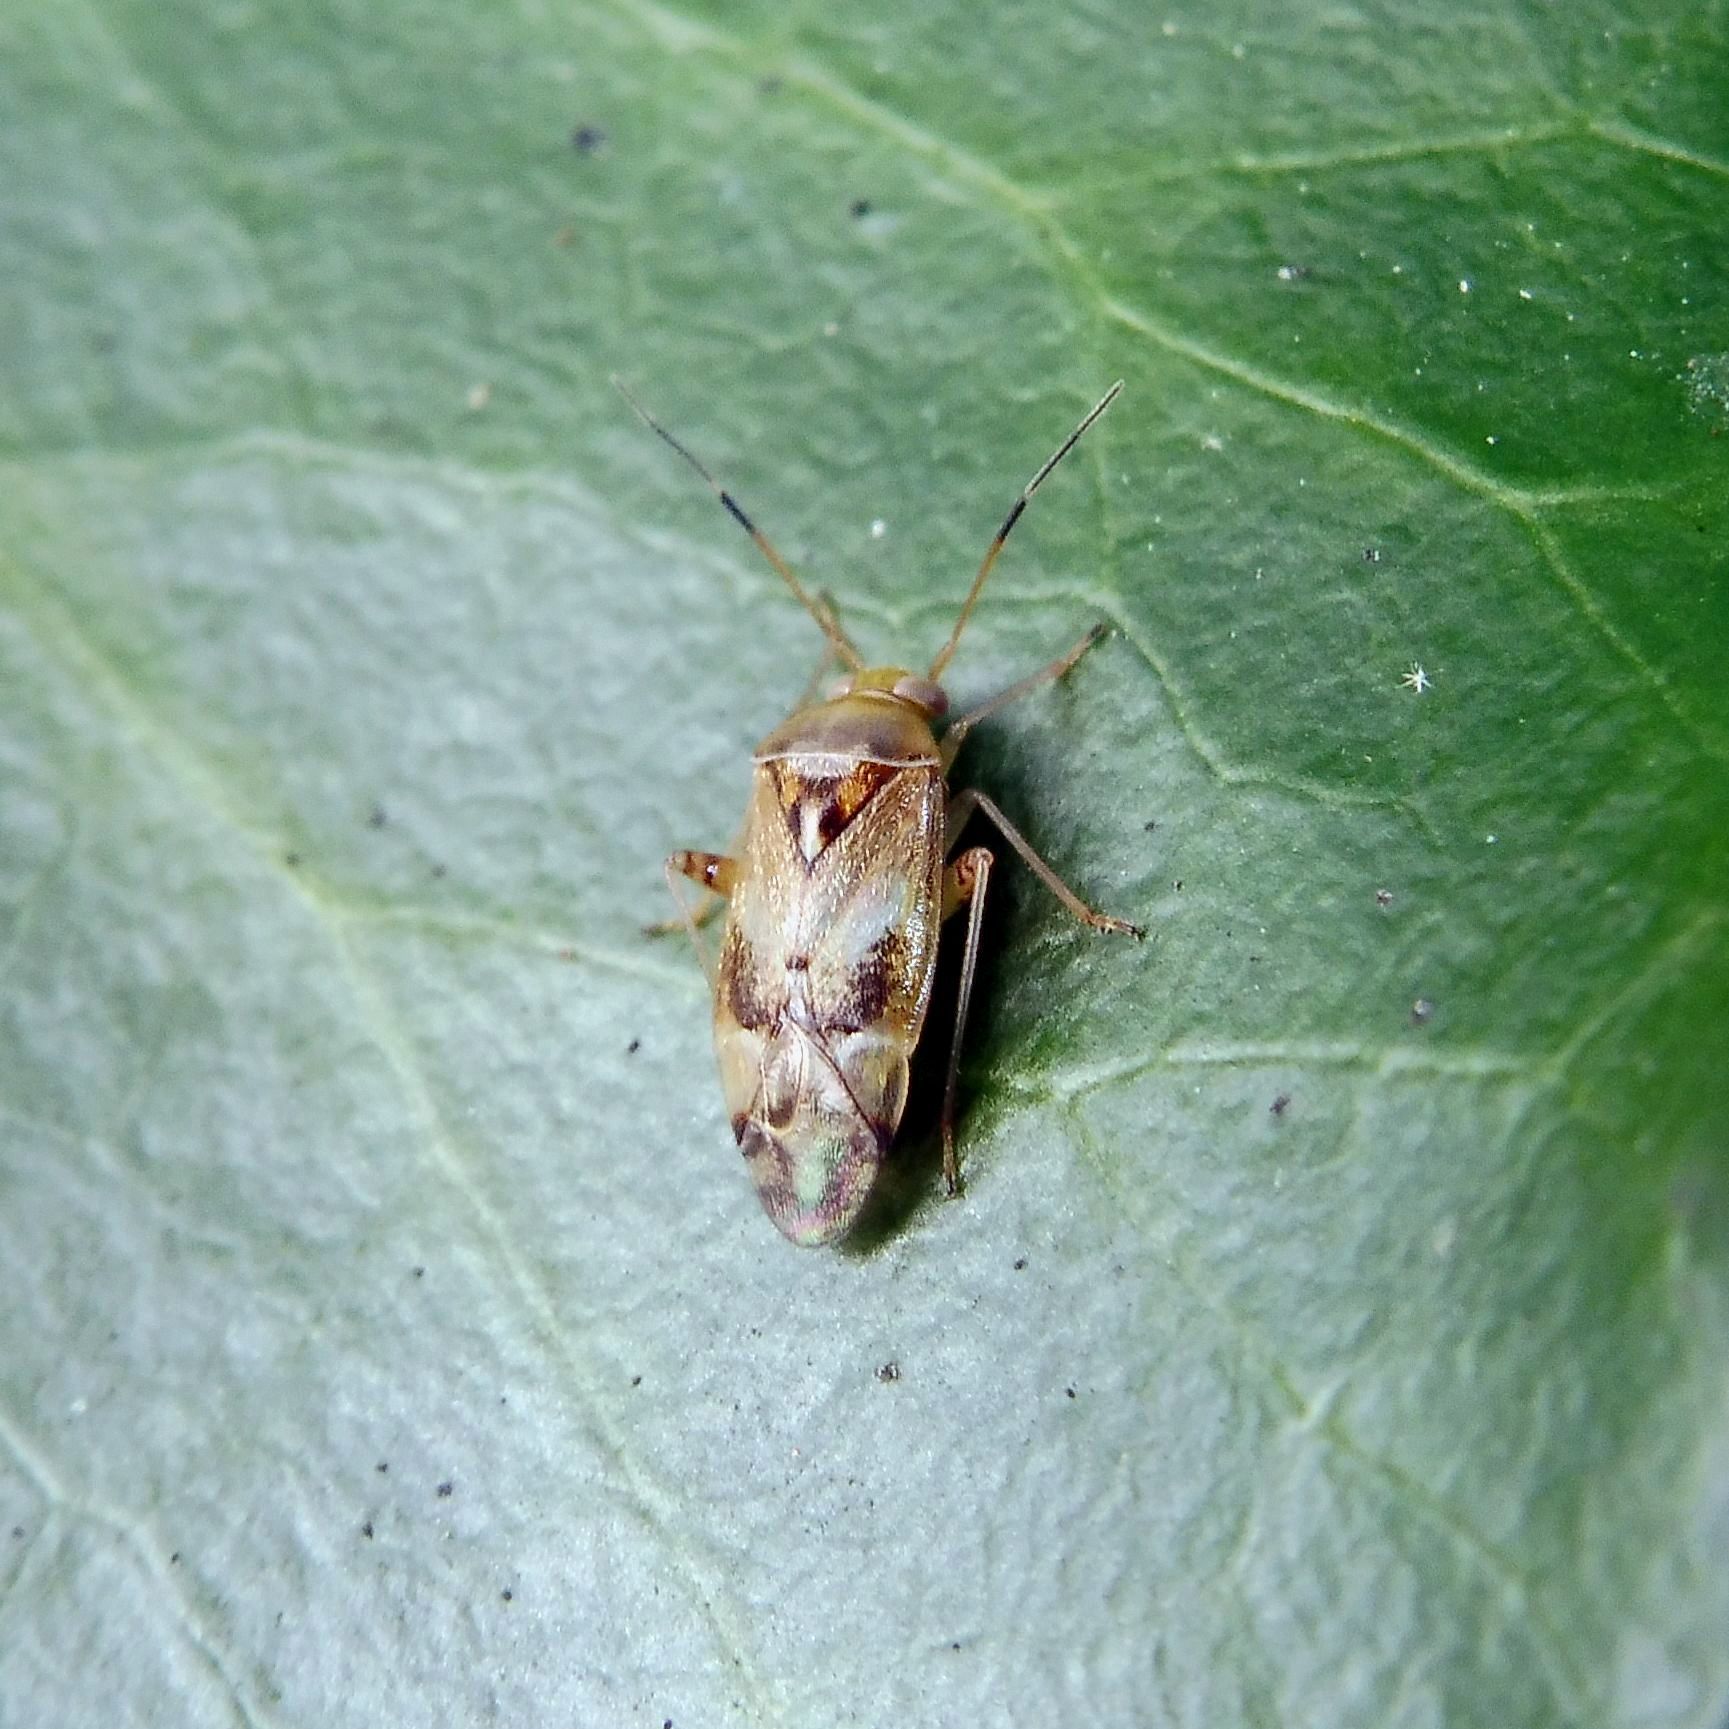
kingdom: Animalia
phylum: Arthropoda
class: Insecta
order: Hemiptera
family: Miridae
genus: Pinalitus
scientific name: Pinalitus cervinus
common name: Plant bug
